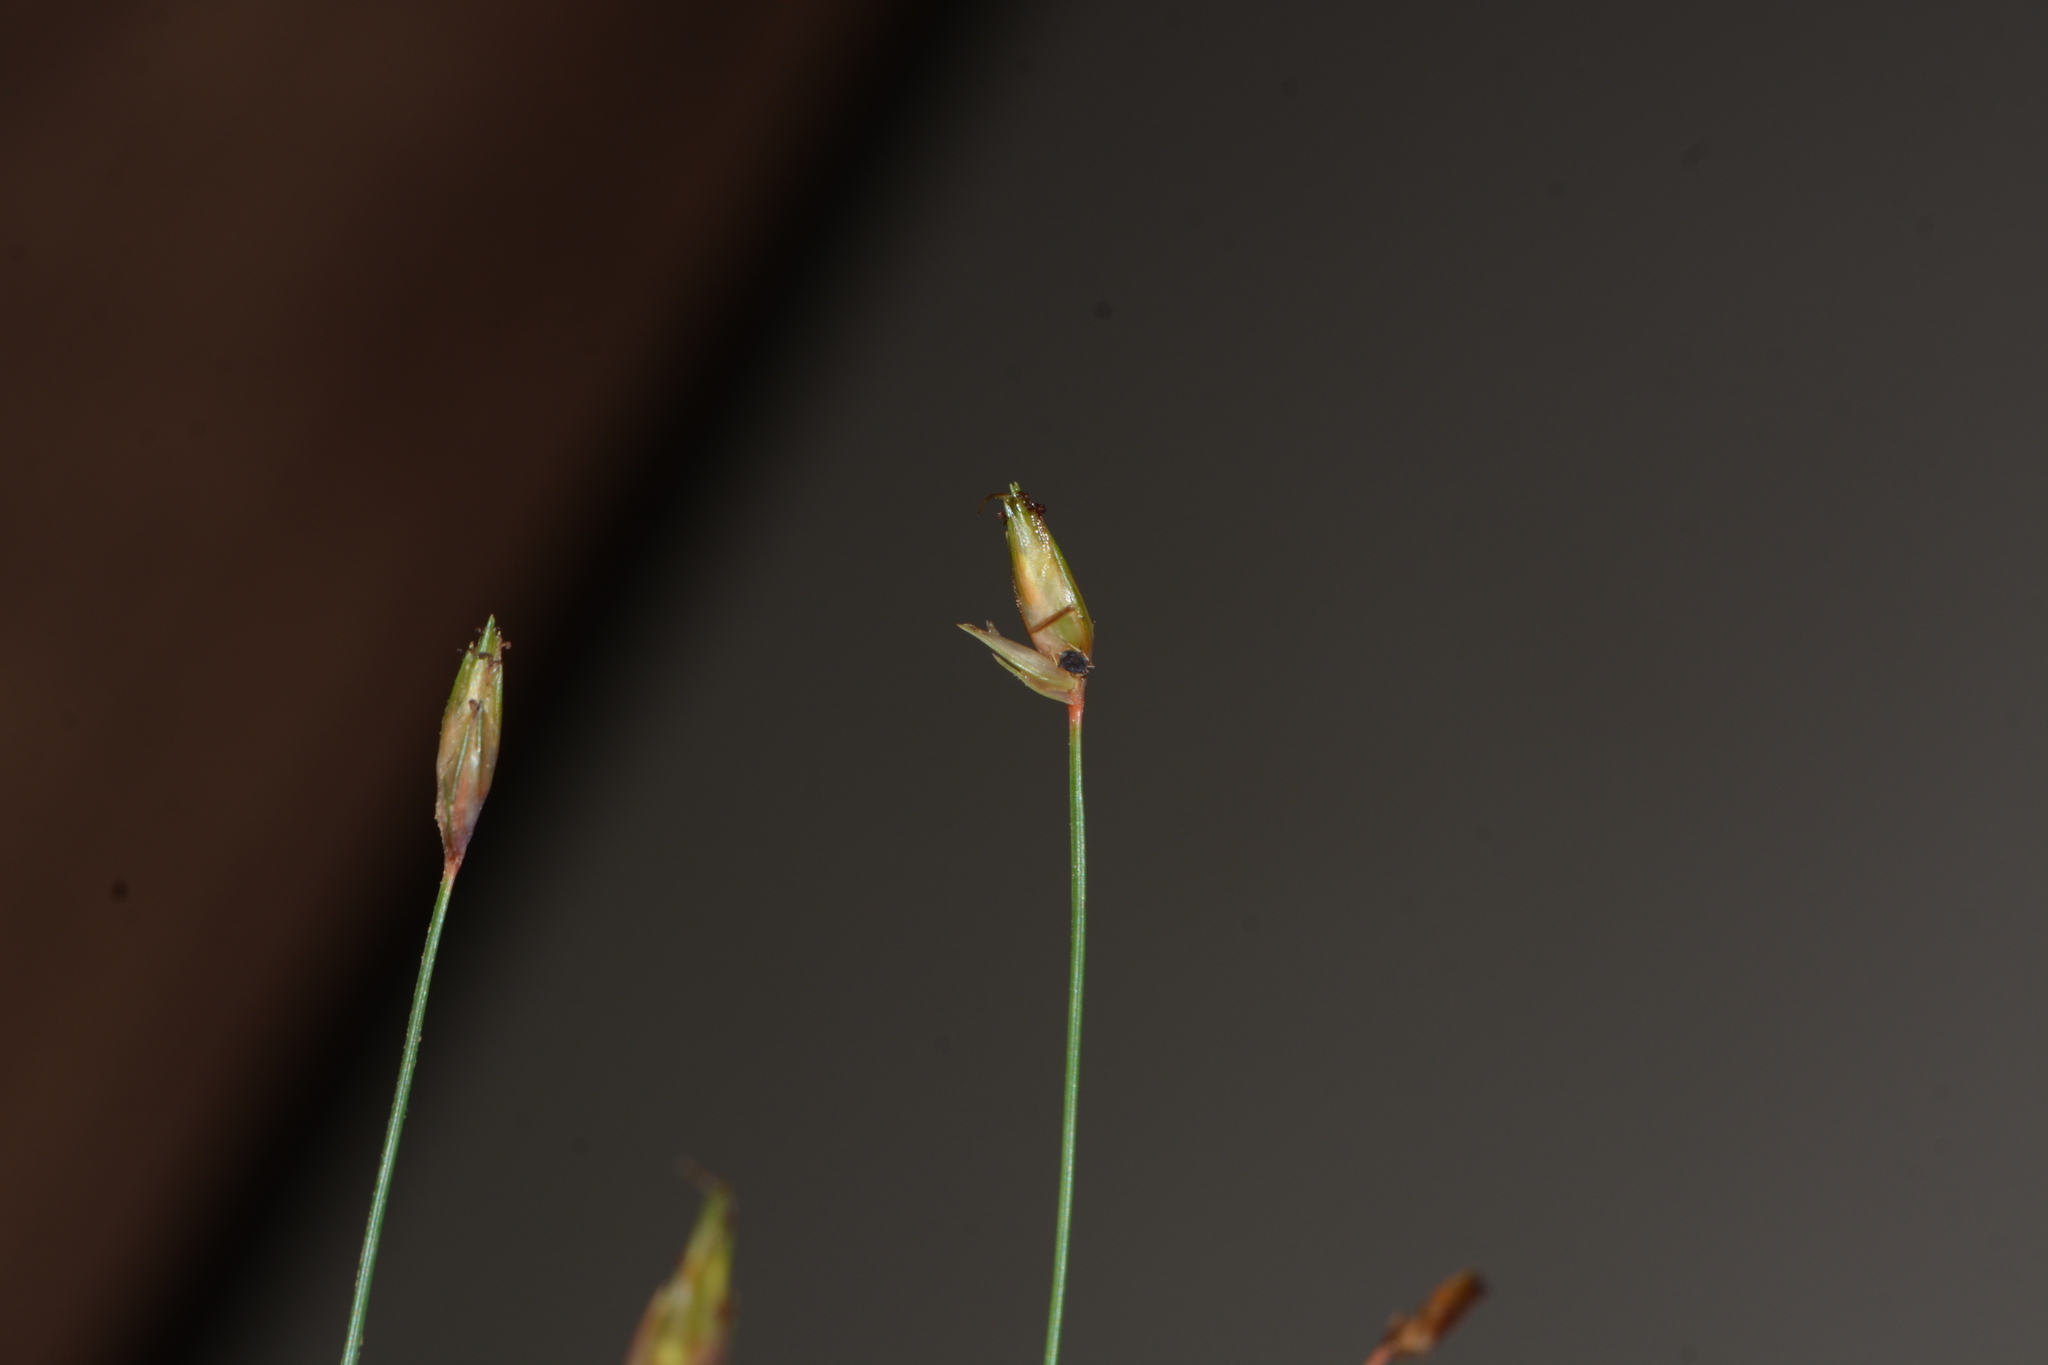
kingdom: Plantae
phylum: Tracheophyta
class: Liliopsida
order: Poales
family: Cyperaceae
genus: Abildgaardia
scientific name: Abildgaardia ovata
